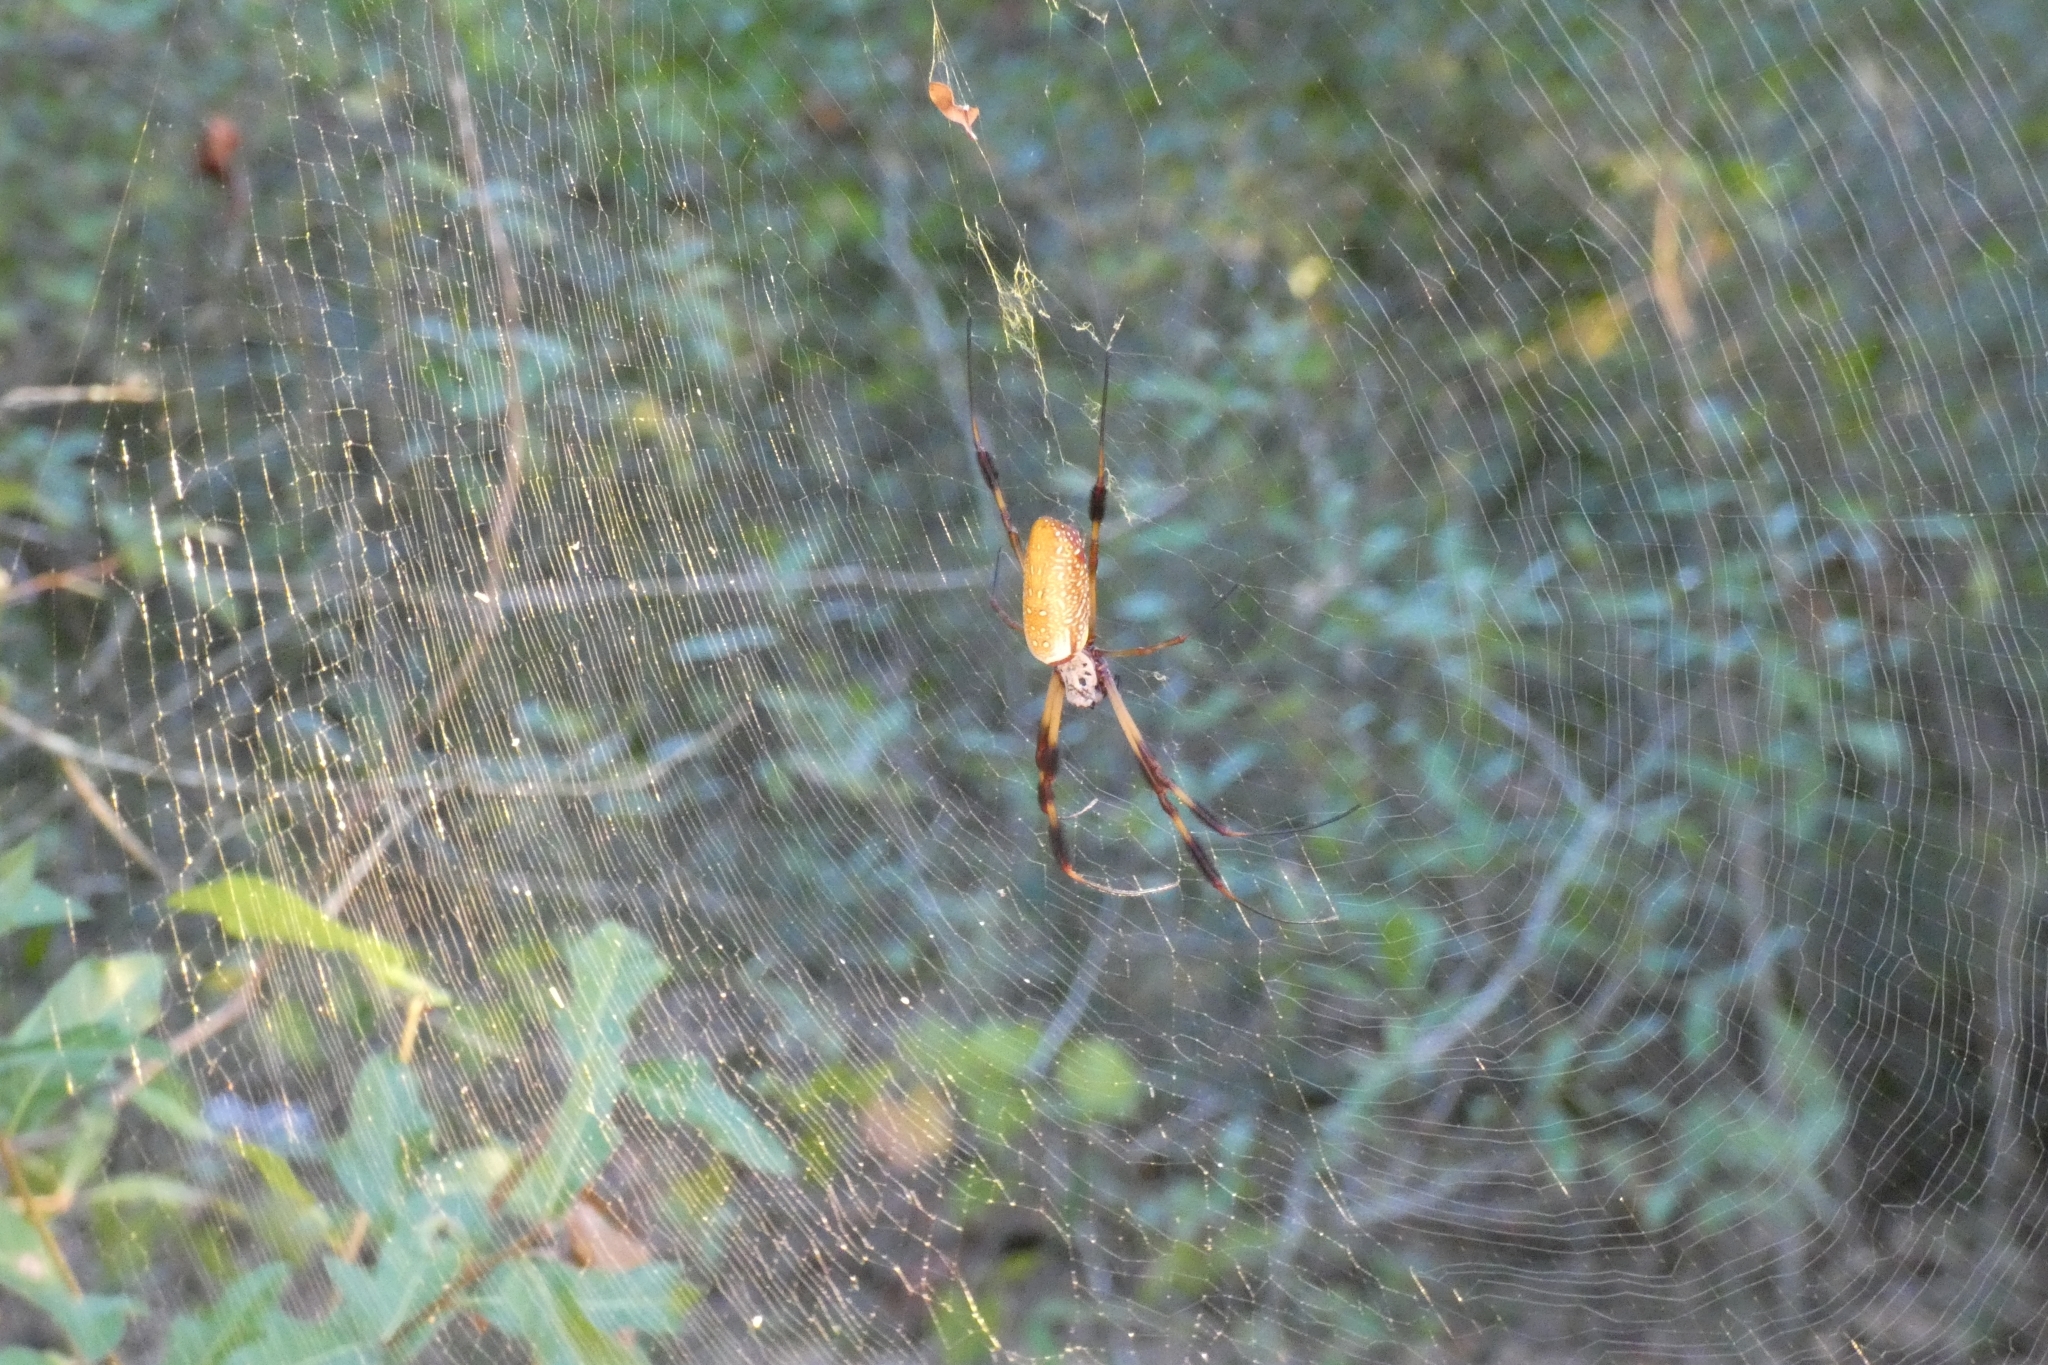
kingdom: Animalia
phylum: Arthropoda
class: Arachnida
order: Araneae
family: Araneidae
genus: Trichonephila
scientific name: Trichonephila clavipes
